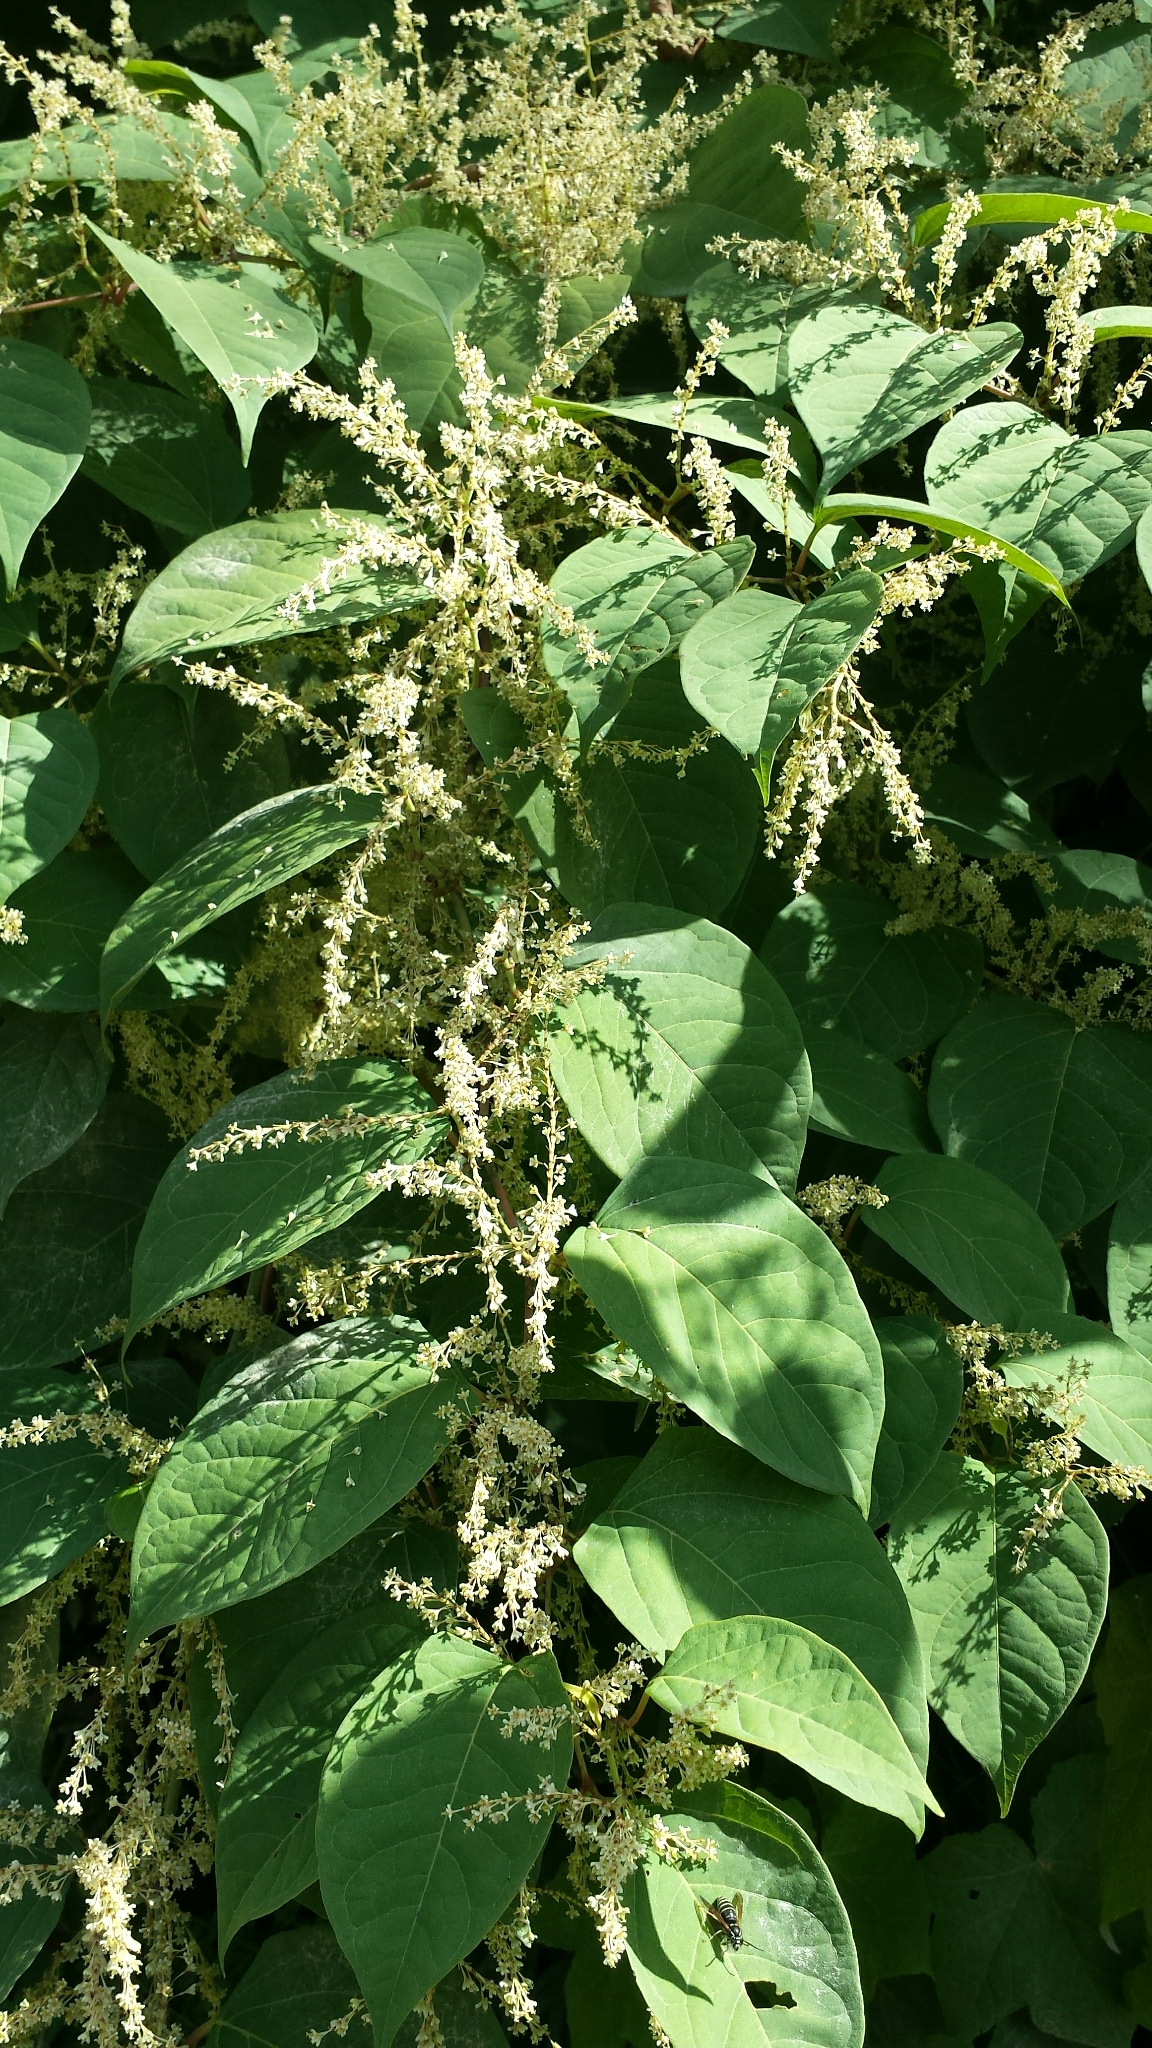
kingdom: Plantae
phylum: Tracheophyta
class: Magnoliopsida
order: Caryophyllales
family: Polygonaceae
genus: Reynoutria
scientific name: Reynoutria japonica
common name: Japanese knotweed
